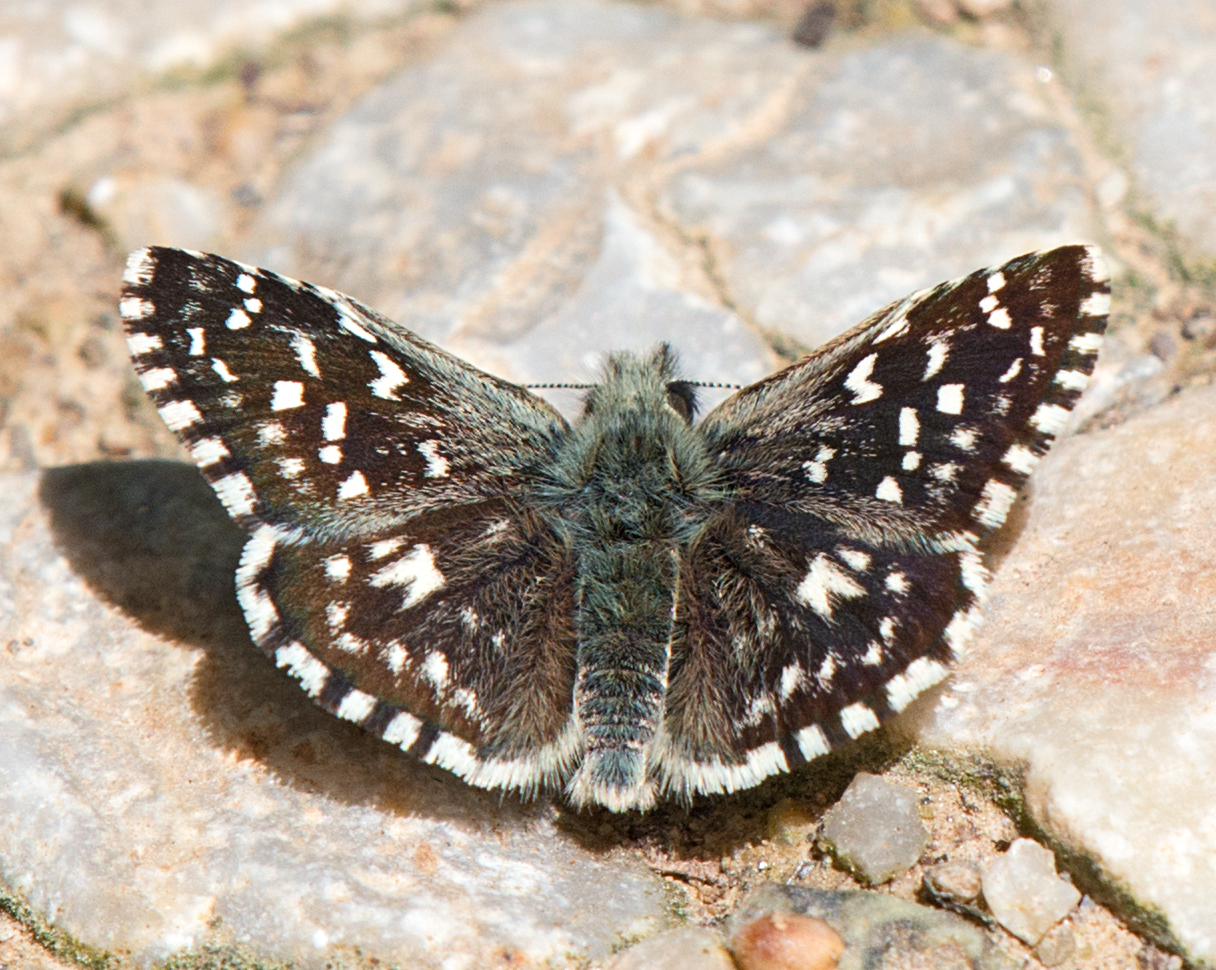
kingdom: Animalia
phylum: Arthropoda
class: Insecta
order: Lepidoptera
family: Hesperiidae
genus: Pyrgus
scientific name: Pyrgus malvae
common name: Grizzled skipper
